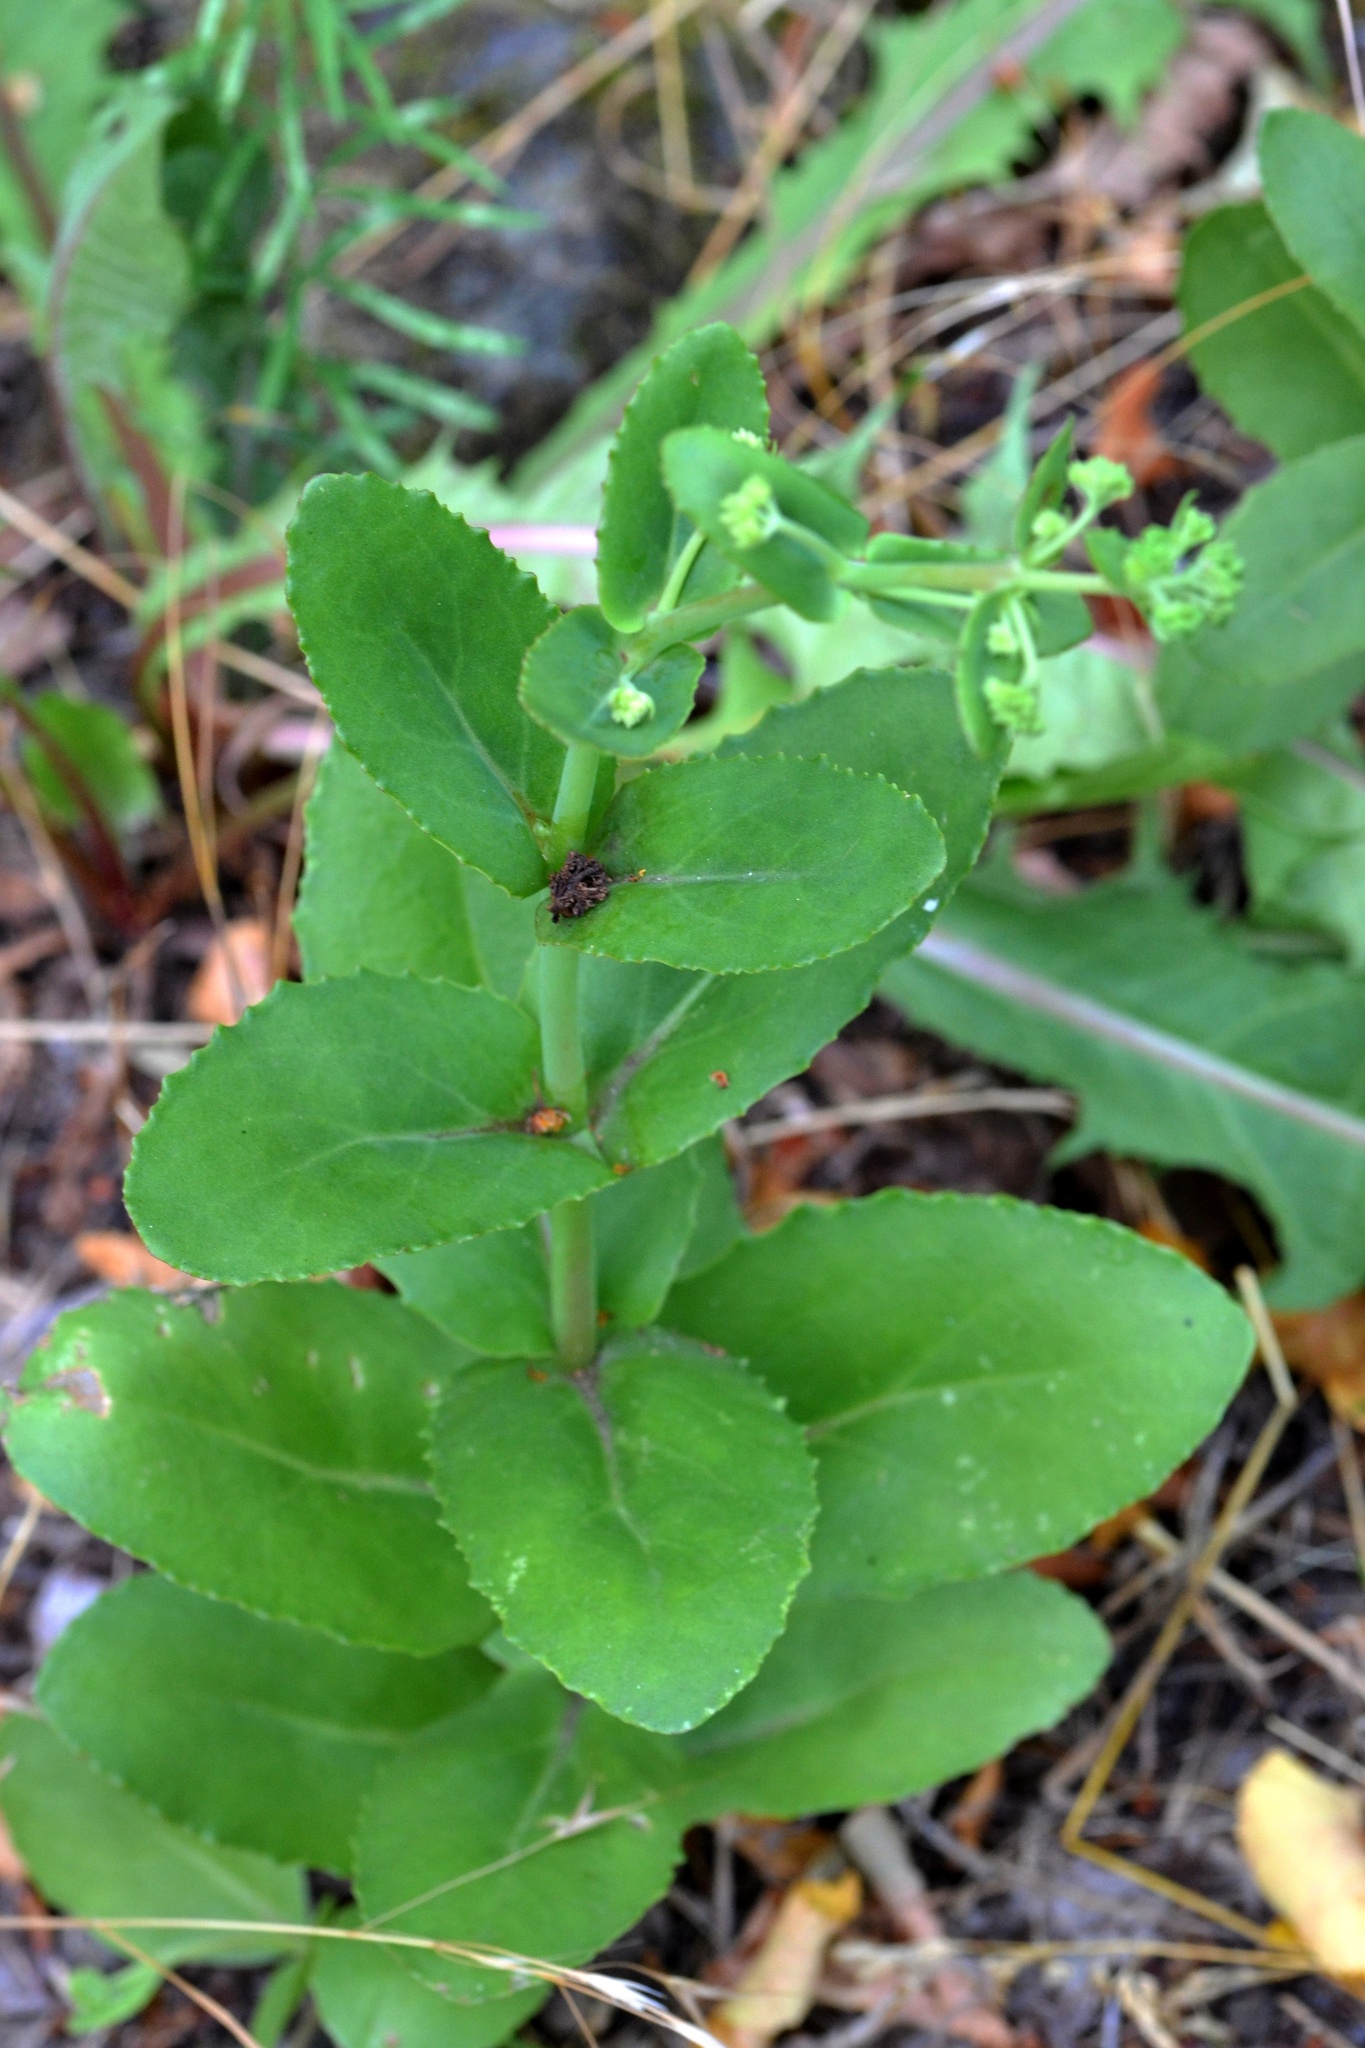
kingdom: Plantae
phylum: Tracheophyta
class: Magnoliopsida
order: Saxifragales
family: Crassulaceae
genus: Hylotelephium
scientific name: Hylotelephium maximum
